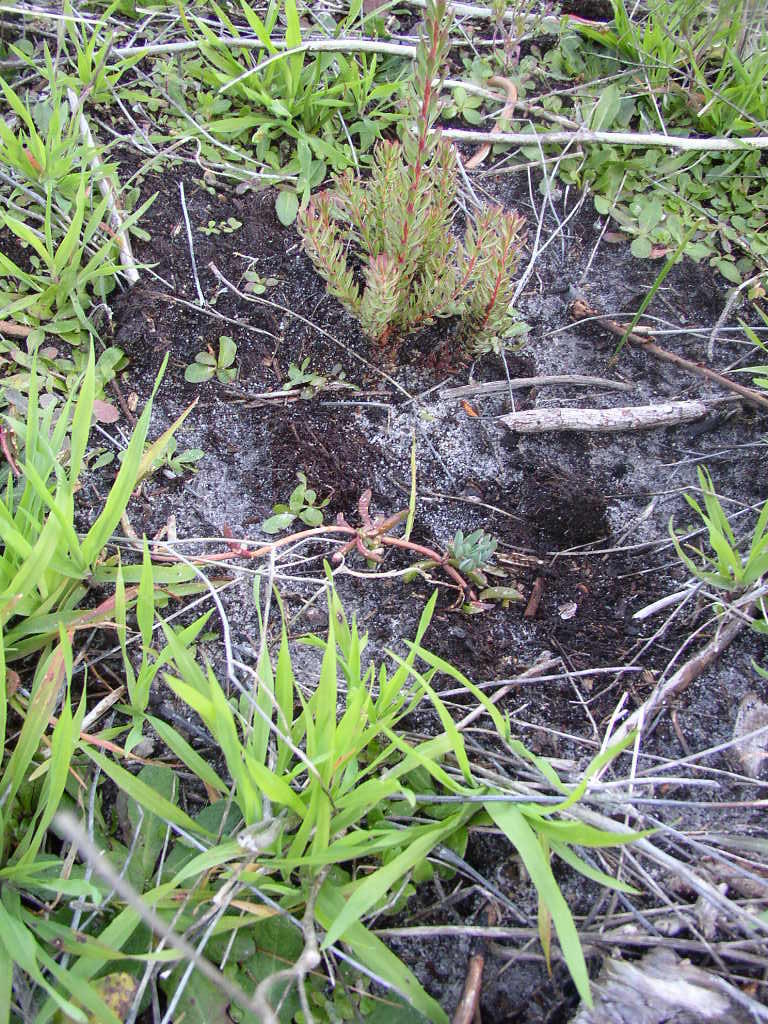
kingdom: Plantae
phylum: Tracheophyta
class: Magnoliopsida
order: Caryophyllales
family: Aizoaceae
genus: Lampranthus
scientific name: Lampranthus reptans
